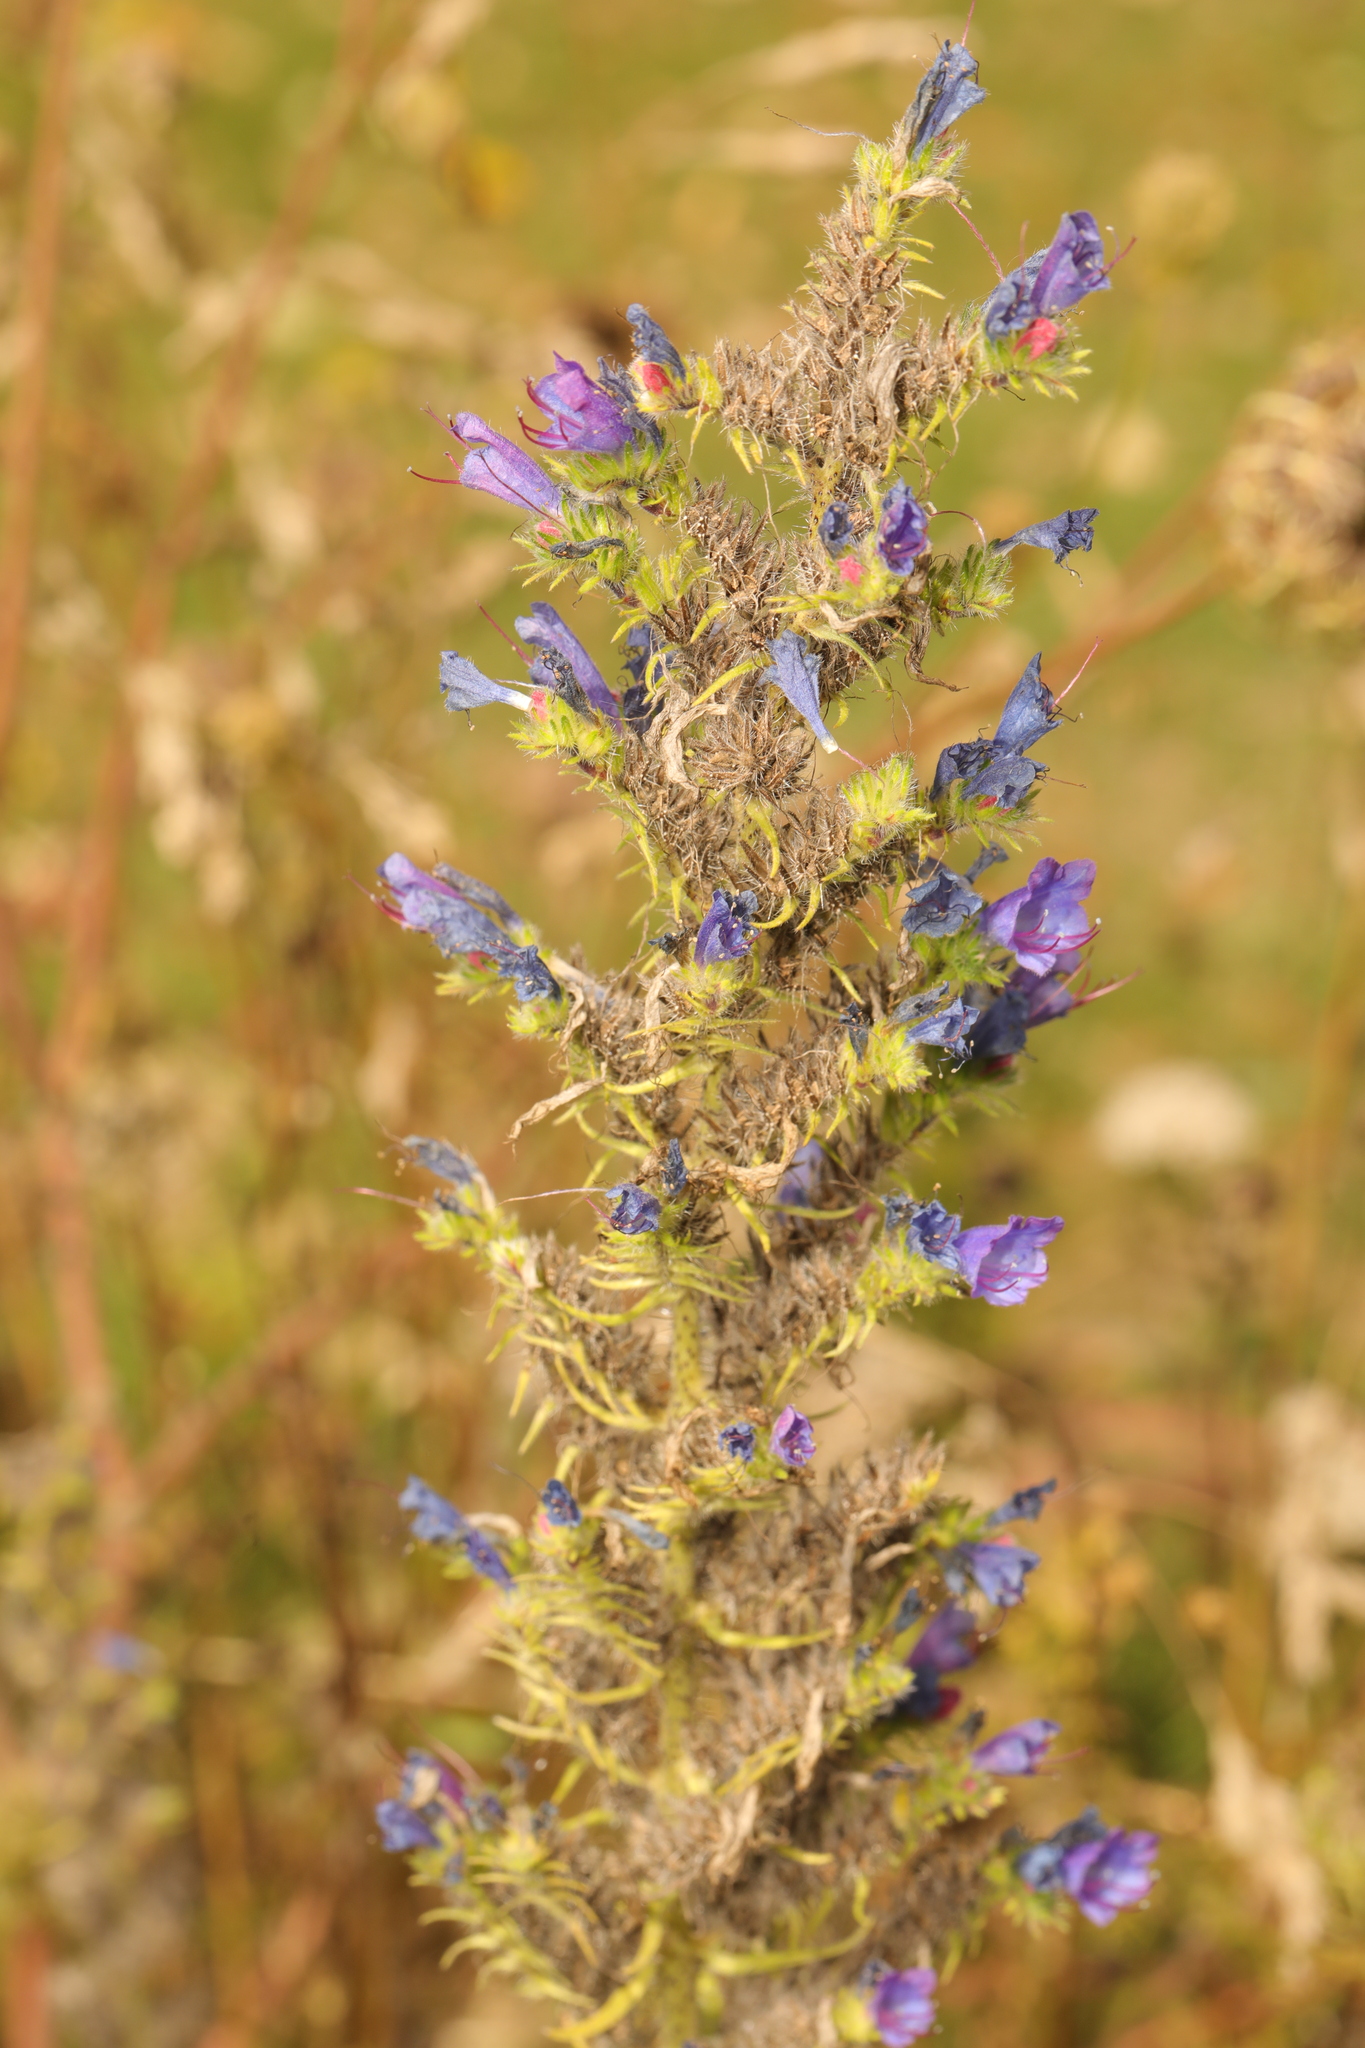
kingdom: Plantae
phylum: Tracheophyta
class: Magnoliopsida
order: Boraginales
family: Boraginaceae
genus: Echium
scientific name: Echium vulgare
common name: Common viper's bugloss
